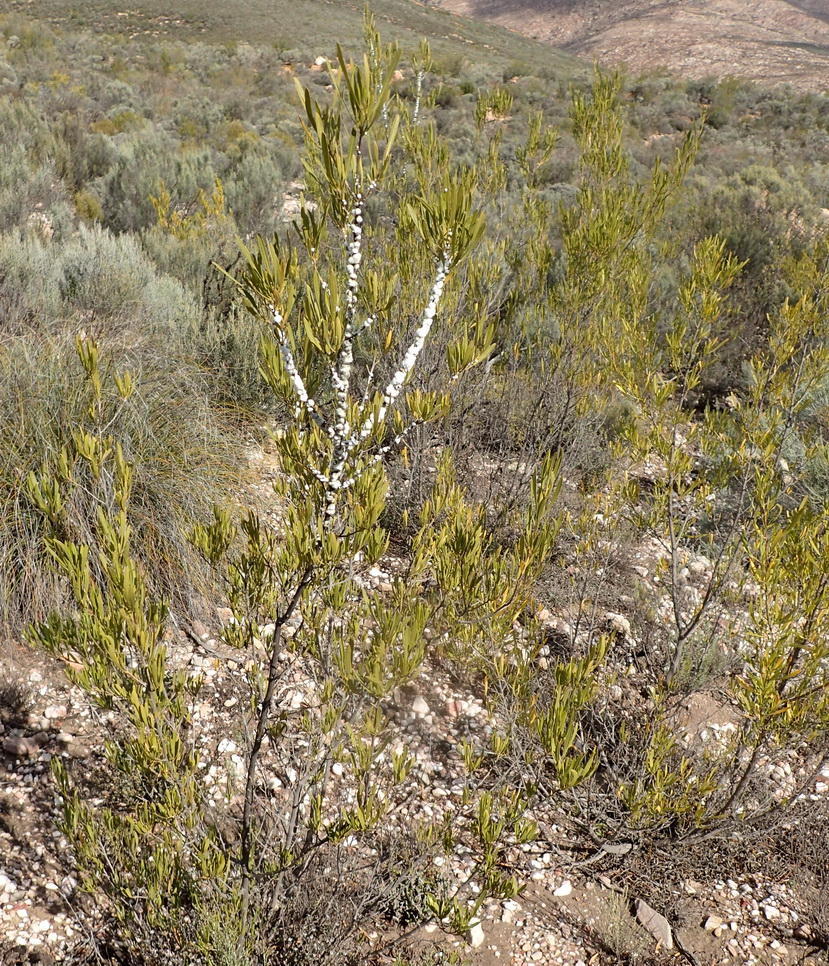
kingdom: Plantae
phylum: Tracheophyta
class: Magnoliopsida
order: Sapindales
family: Sapindaceae
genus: Dodonaea
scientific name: Dodonaea viscosa
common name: Hopbush
